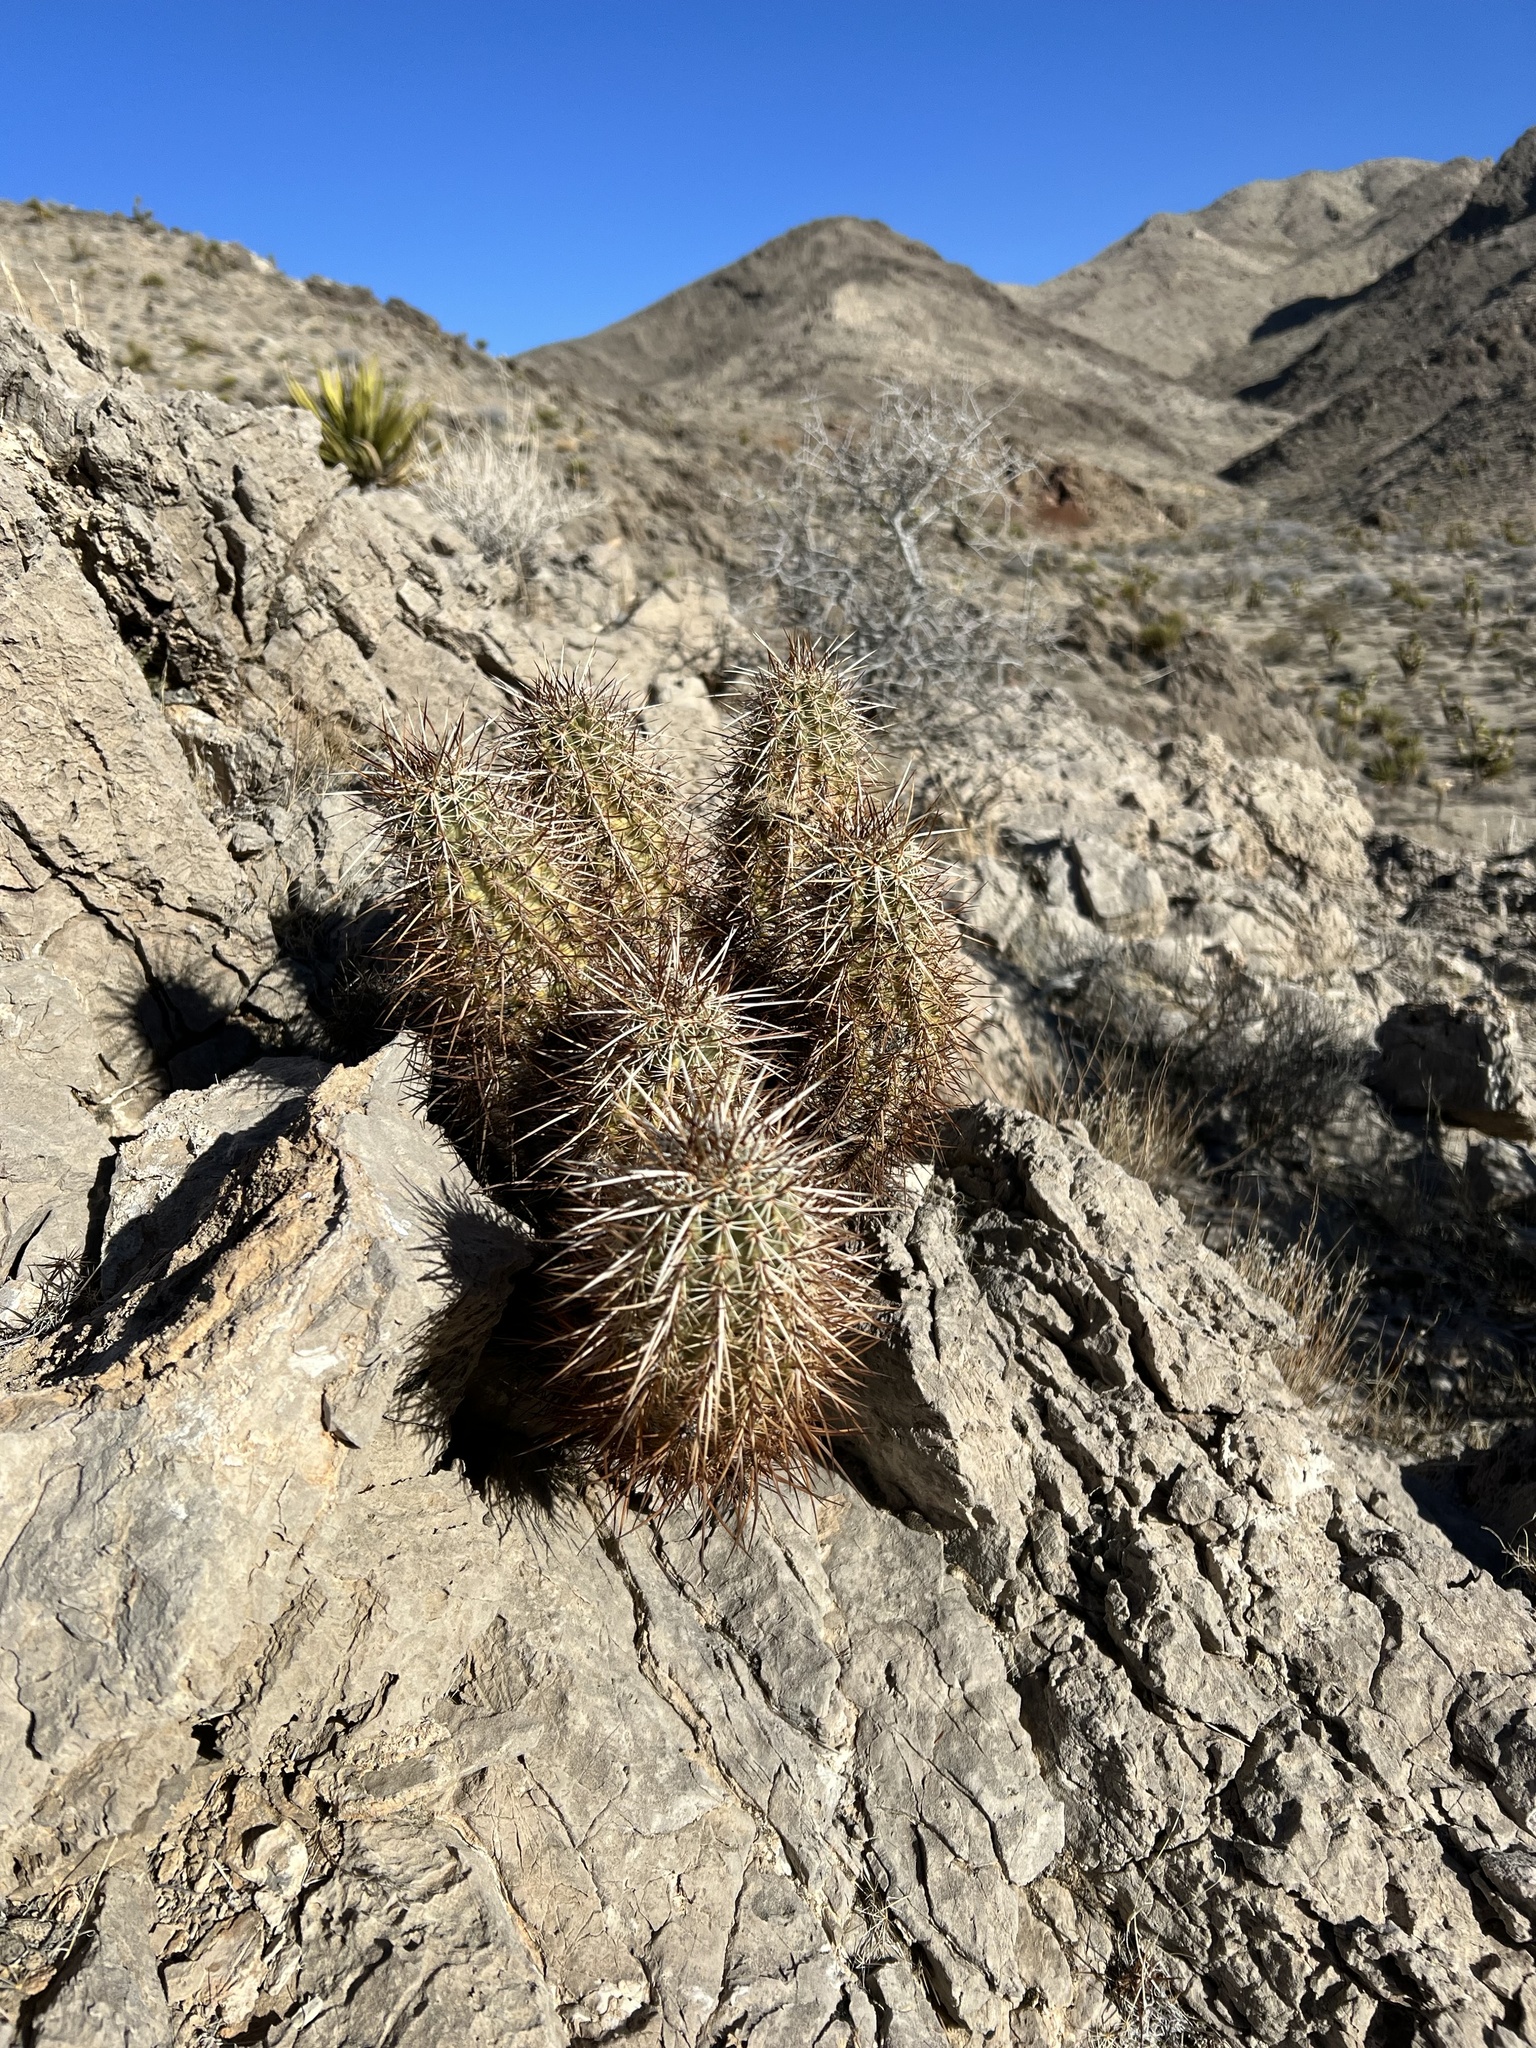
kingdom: Plantae
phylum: Tracheophyta
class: Magnoliopsida
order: Caryophyllales
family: Cactaceae
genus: Echinocereus
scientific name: Echinocereus engelmannii
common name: Engelmann's hedgehog cactus
